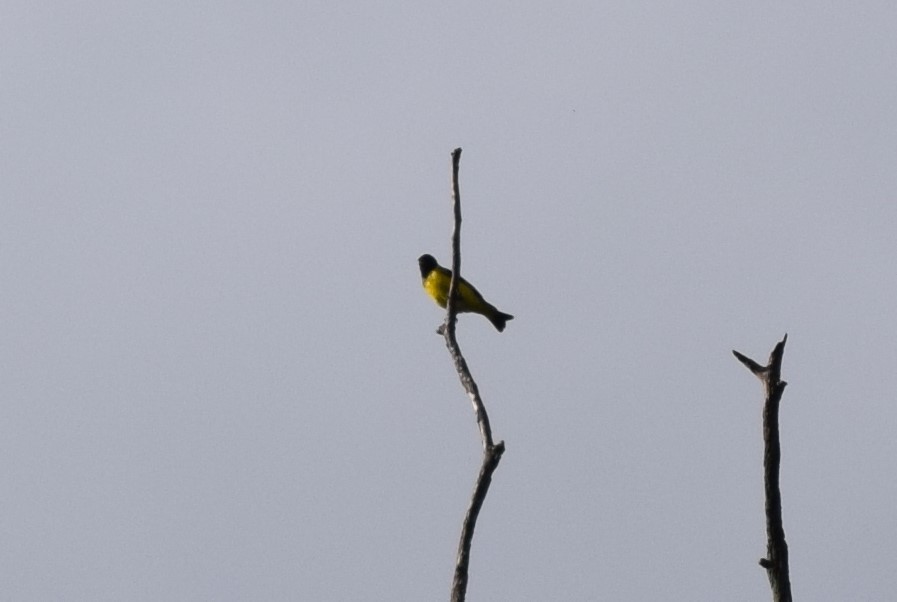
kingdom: Animalia
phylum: Chordata
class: Aves
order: Passeriformes
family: Fringillidae
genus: Spinus
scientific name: Spinus magellanicus
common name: Hooded siskin
